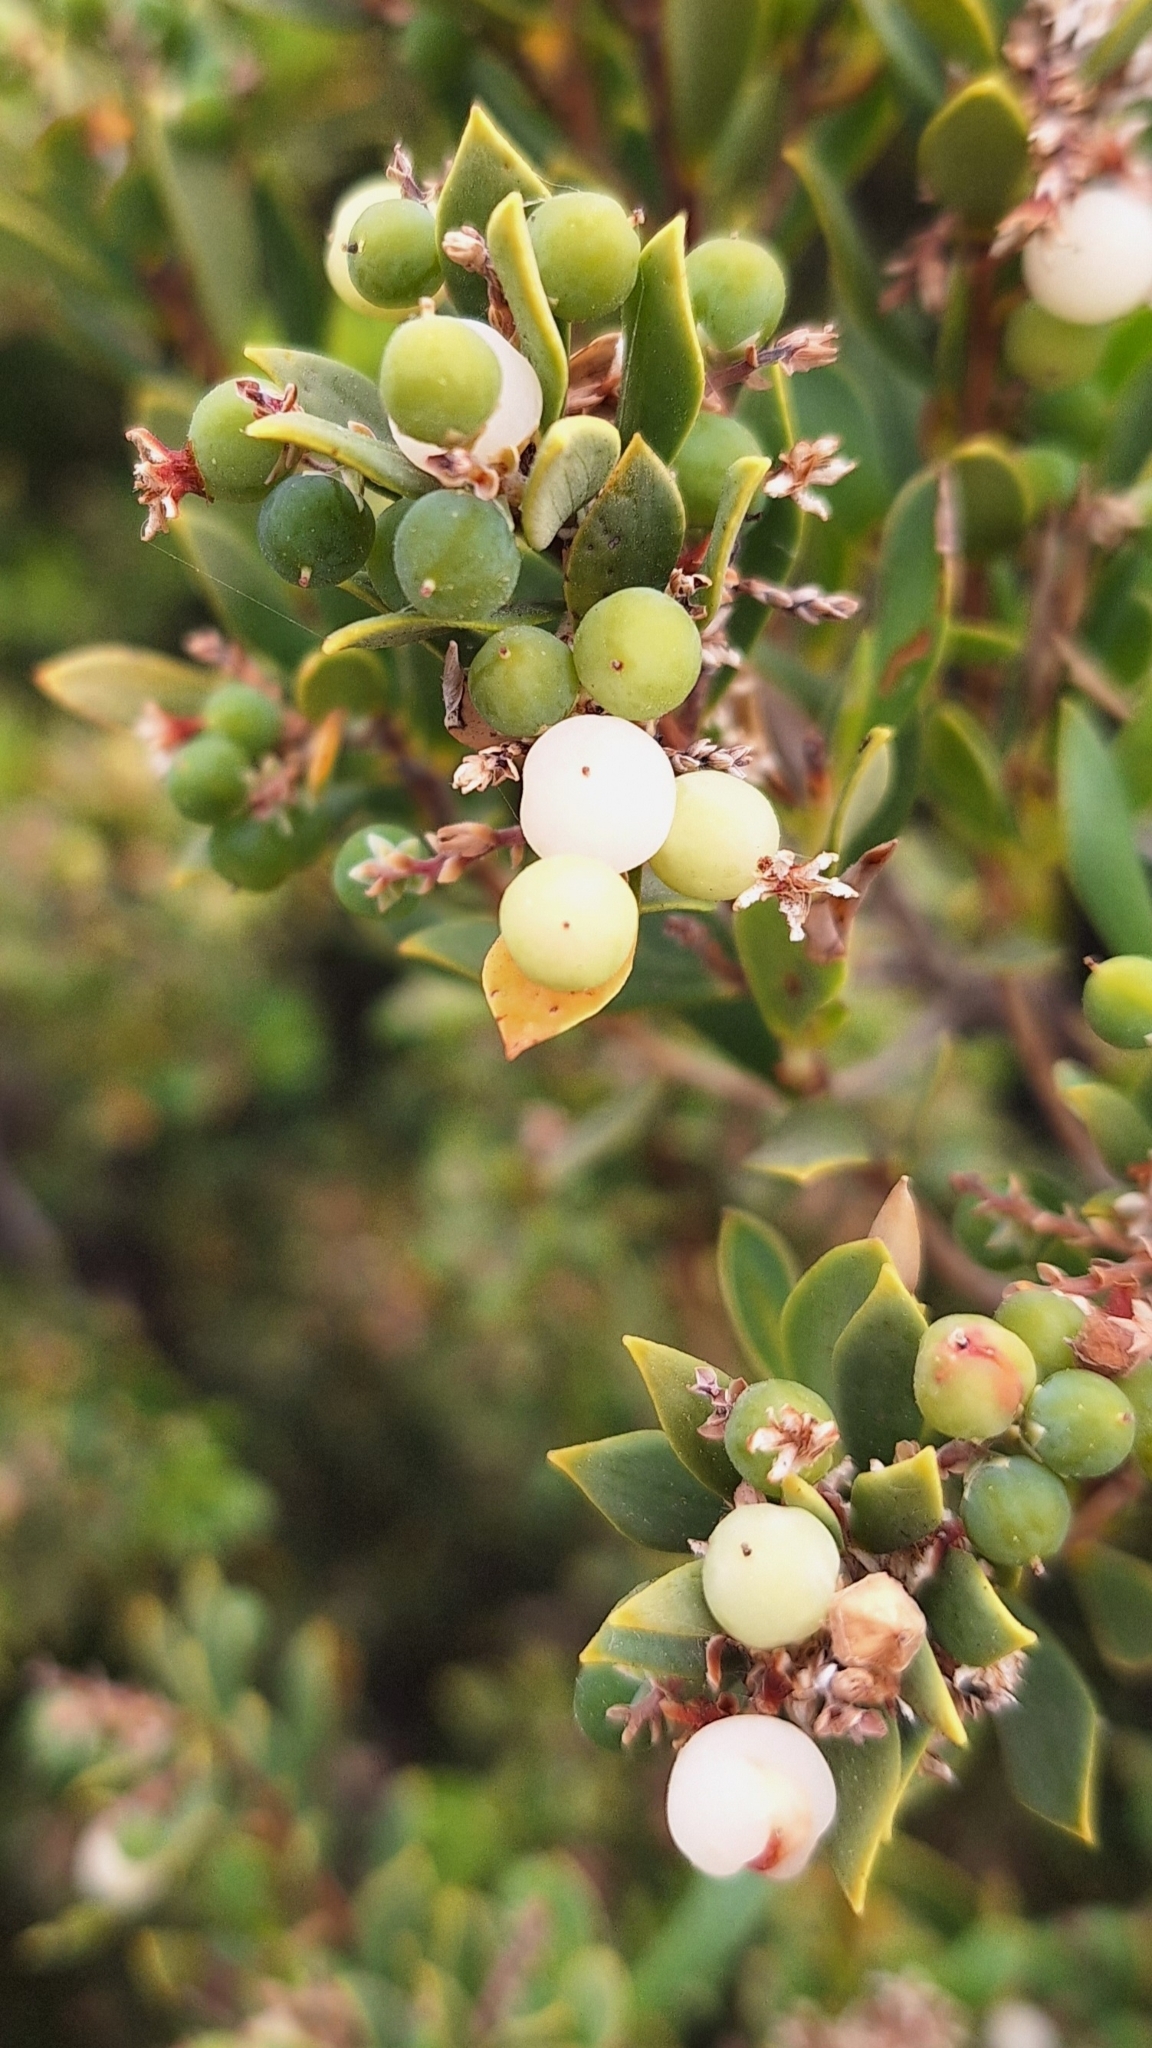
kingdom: Plantae
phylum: Tracheophyta
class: Magnoliopsida
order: Ericales
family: Ericaceae
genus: Leptecophylla
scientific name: Leptecophylla parvifolia
